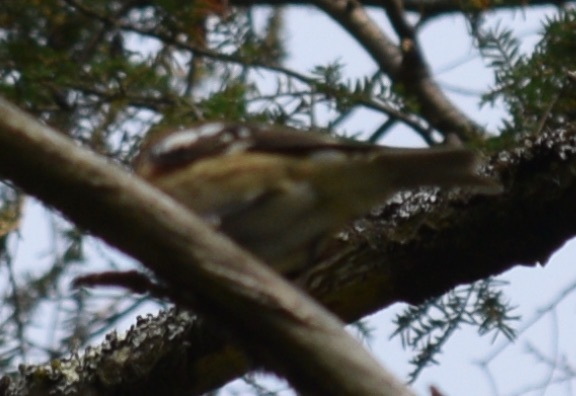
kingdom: Animalia
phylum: Chordata
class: Aves
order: Passeriformes
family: Cardinalidae
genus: Pheucticus
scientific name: Pheucticus ludovicianus
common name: Rose-breasted grosbeak
